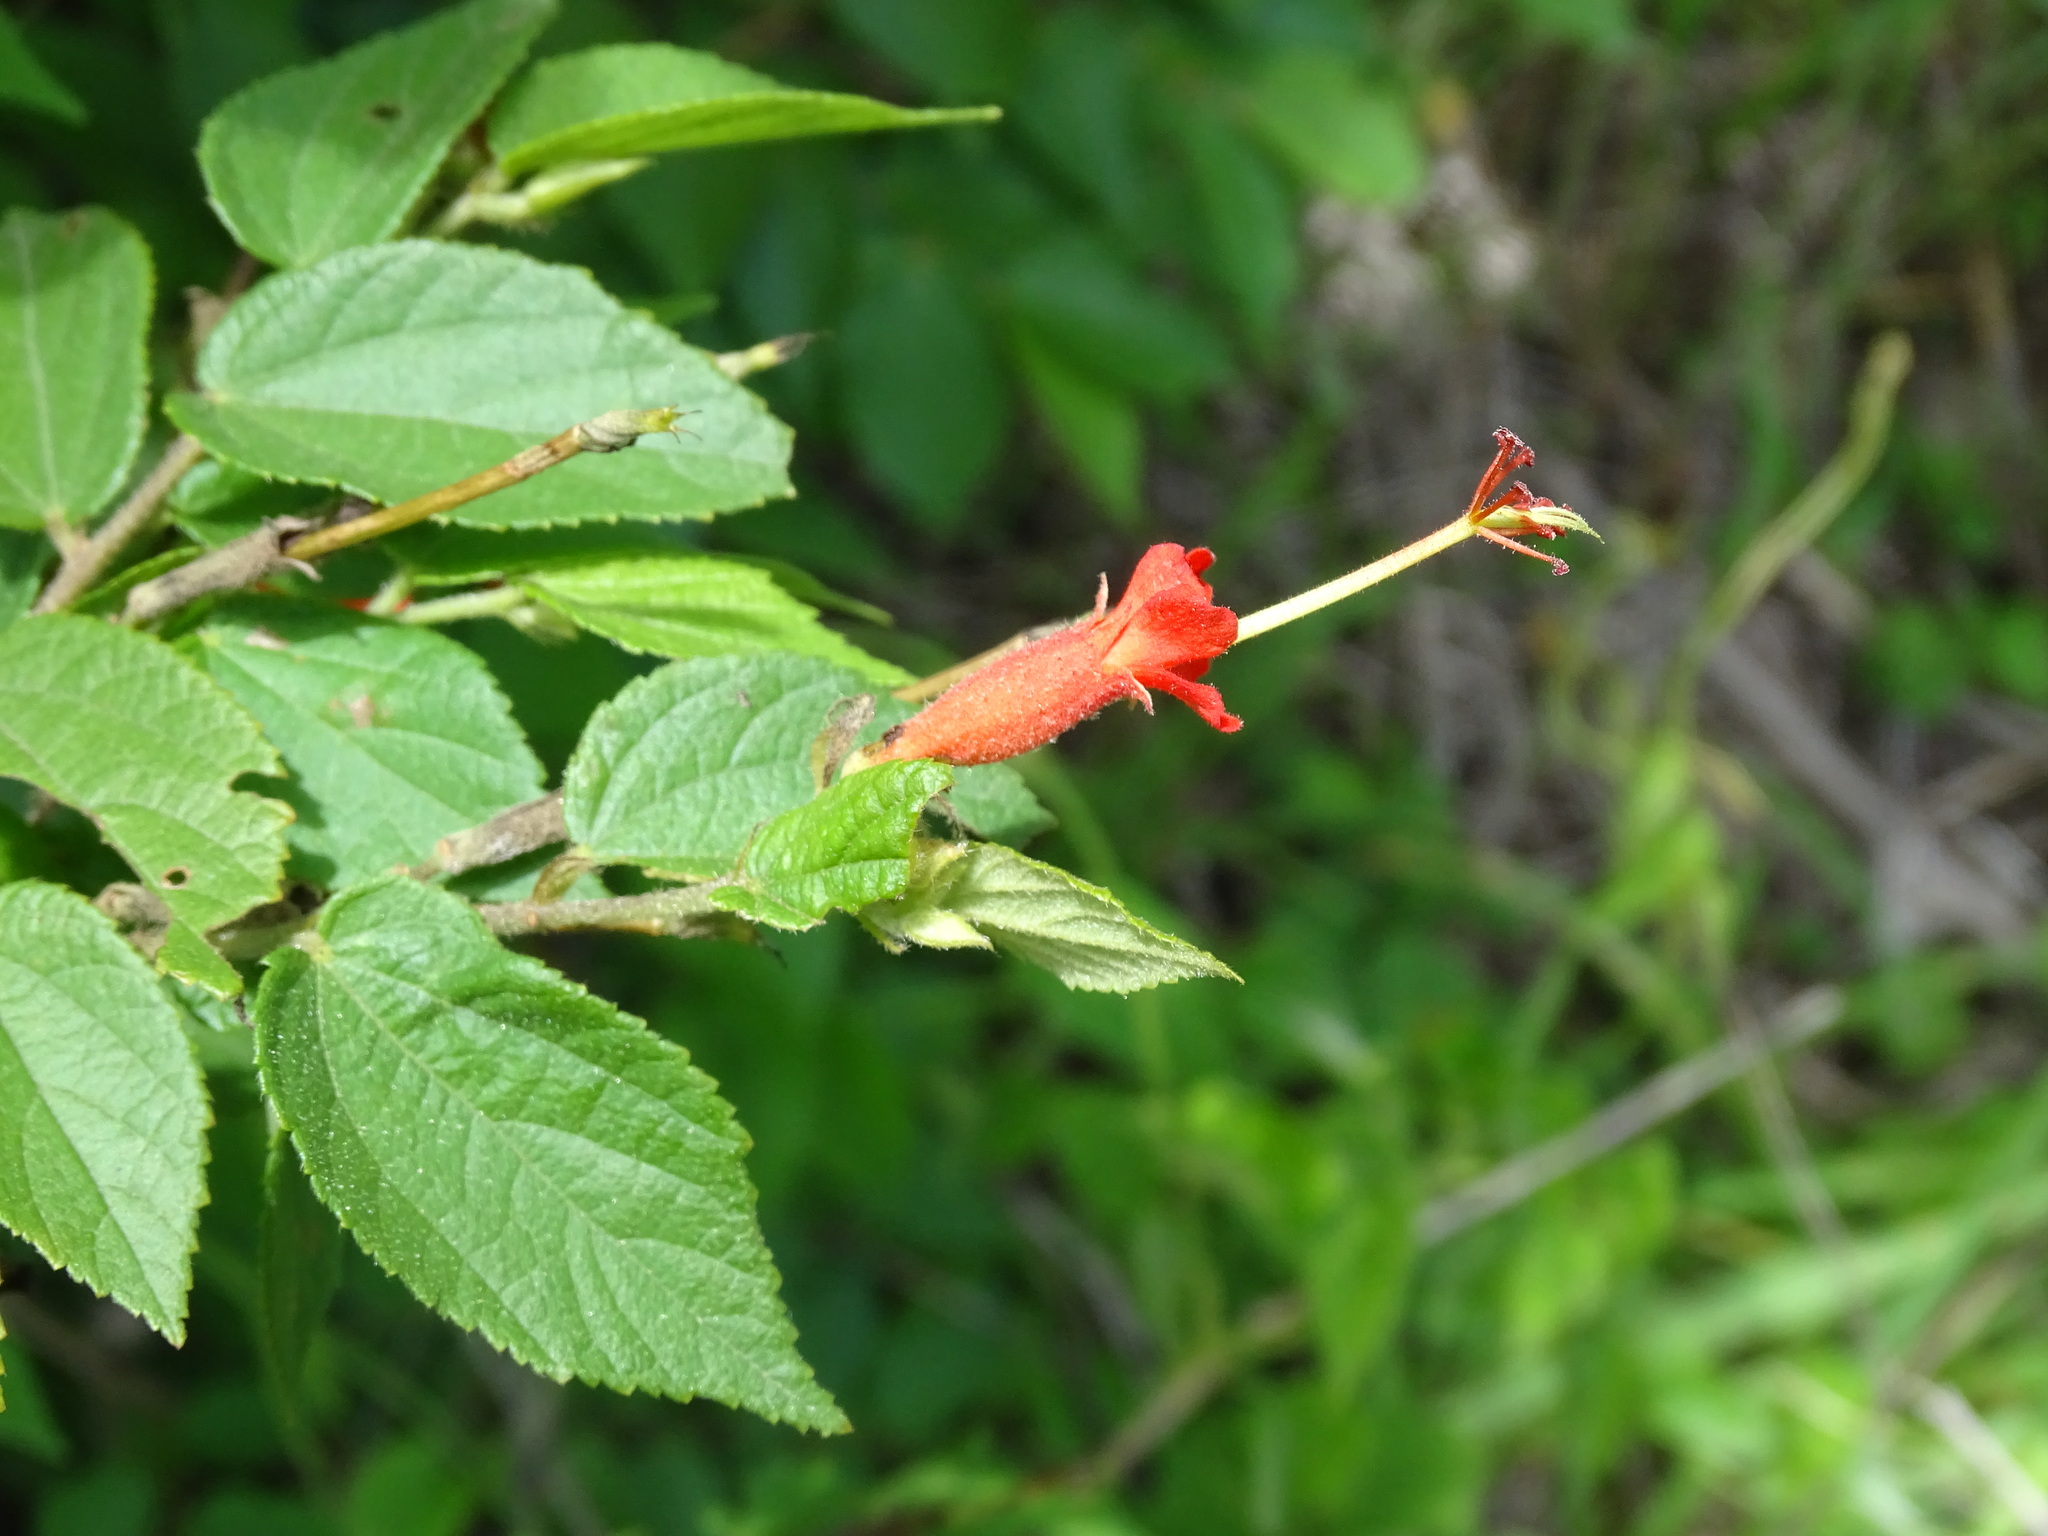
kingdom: Plantae
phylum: Tracheophyta
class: Magnoliopsida
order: Malvales
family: Malvaceae
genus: Helicteres
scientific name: Helicteres guazumifolia
